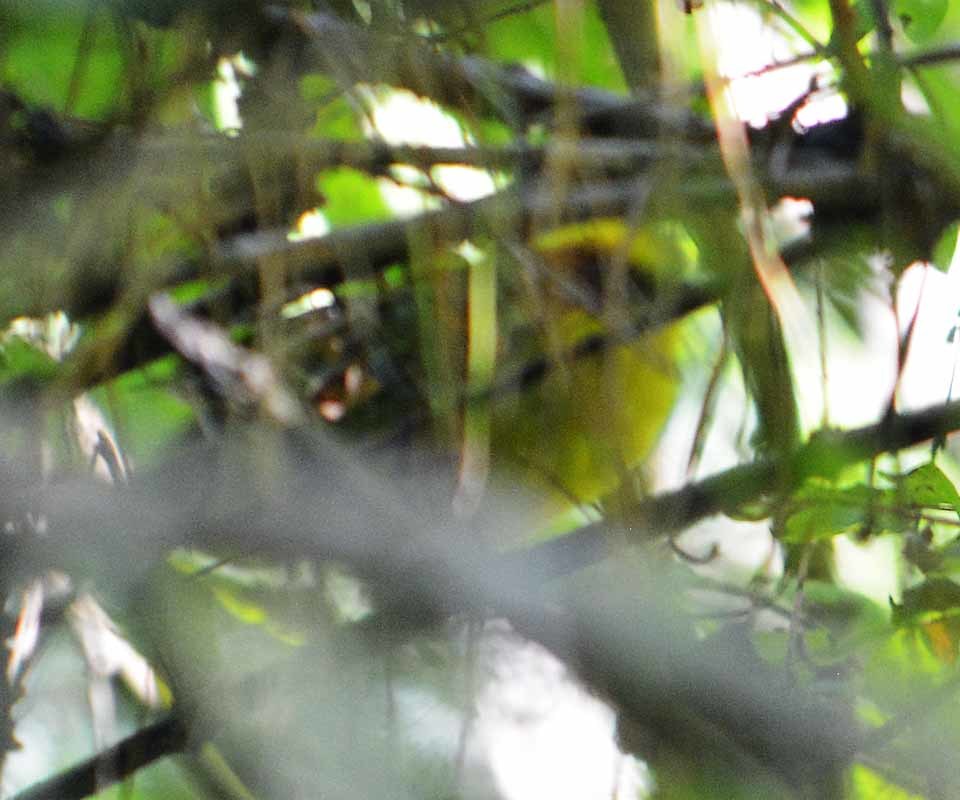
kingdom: Animalia
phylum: Chordata
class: Aves
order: Passeriformes
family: Parulidae
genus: Basileuterus
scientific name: Basileuterus belli
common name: Golden-browed warbler
